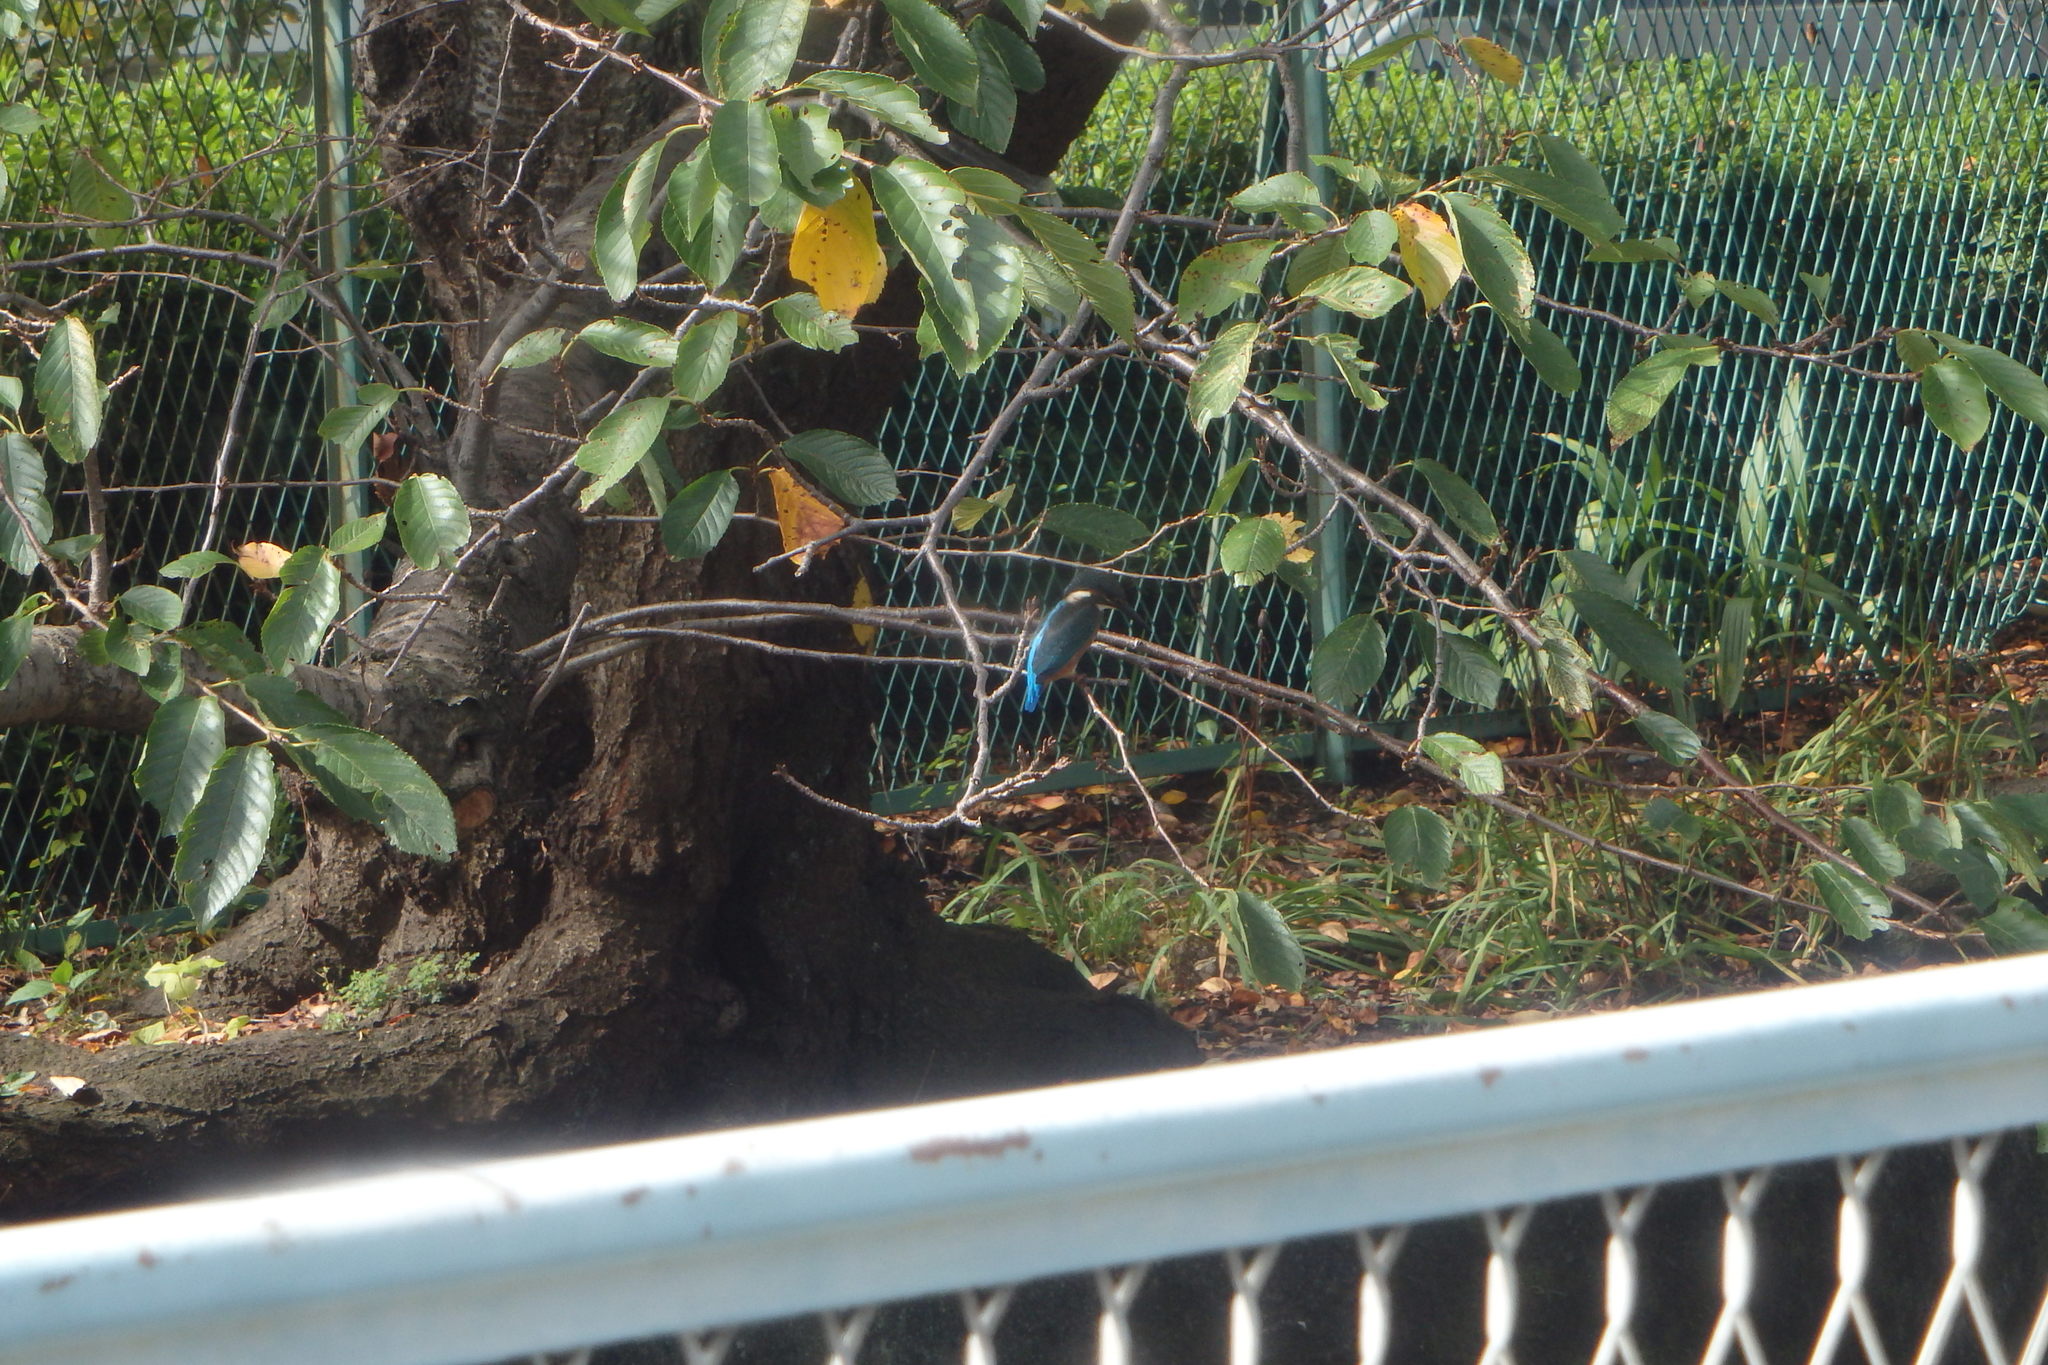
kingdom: Animalia
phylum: Chordata
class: Aves
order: Coraciiformes
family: Alcedinidae
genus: Alcedo
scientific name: Alcedo atthis
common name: Common kingfisher
